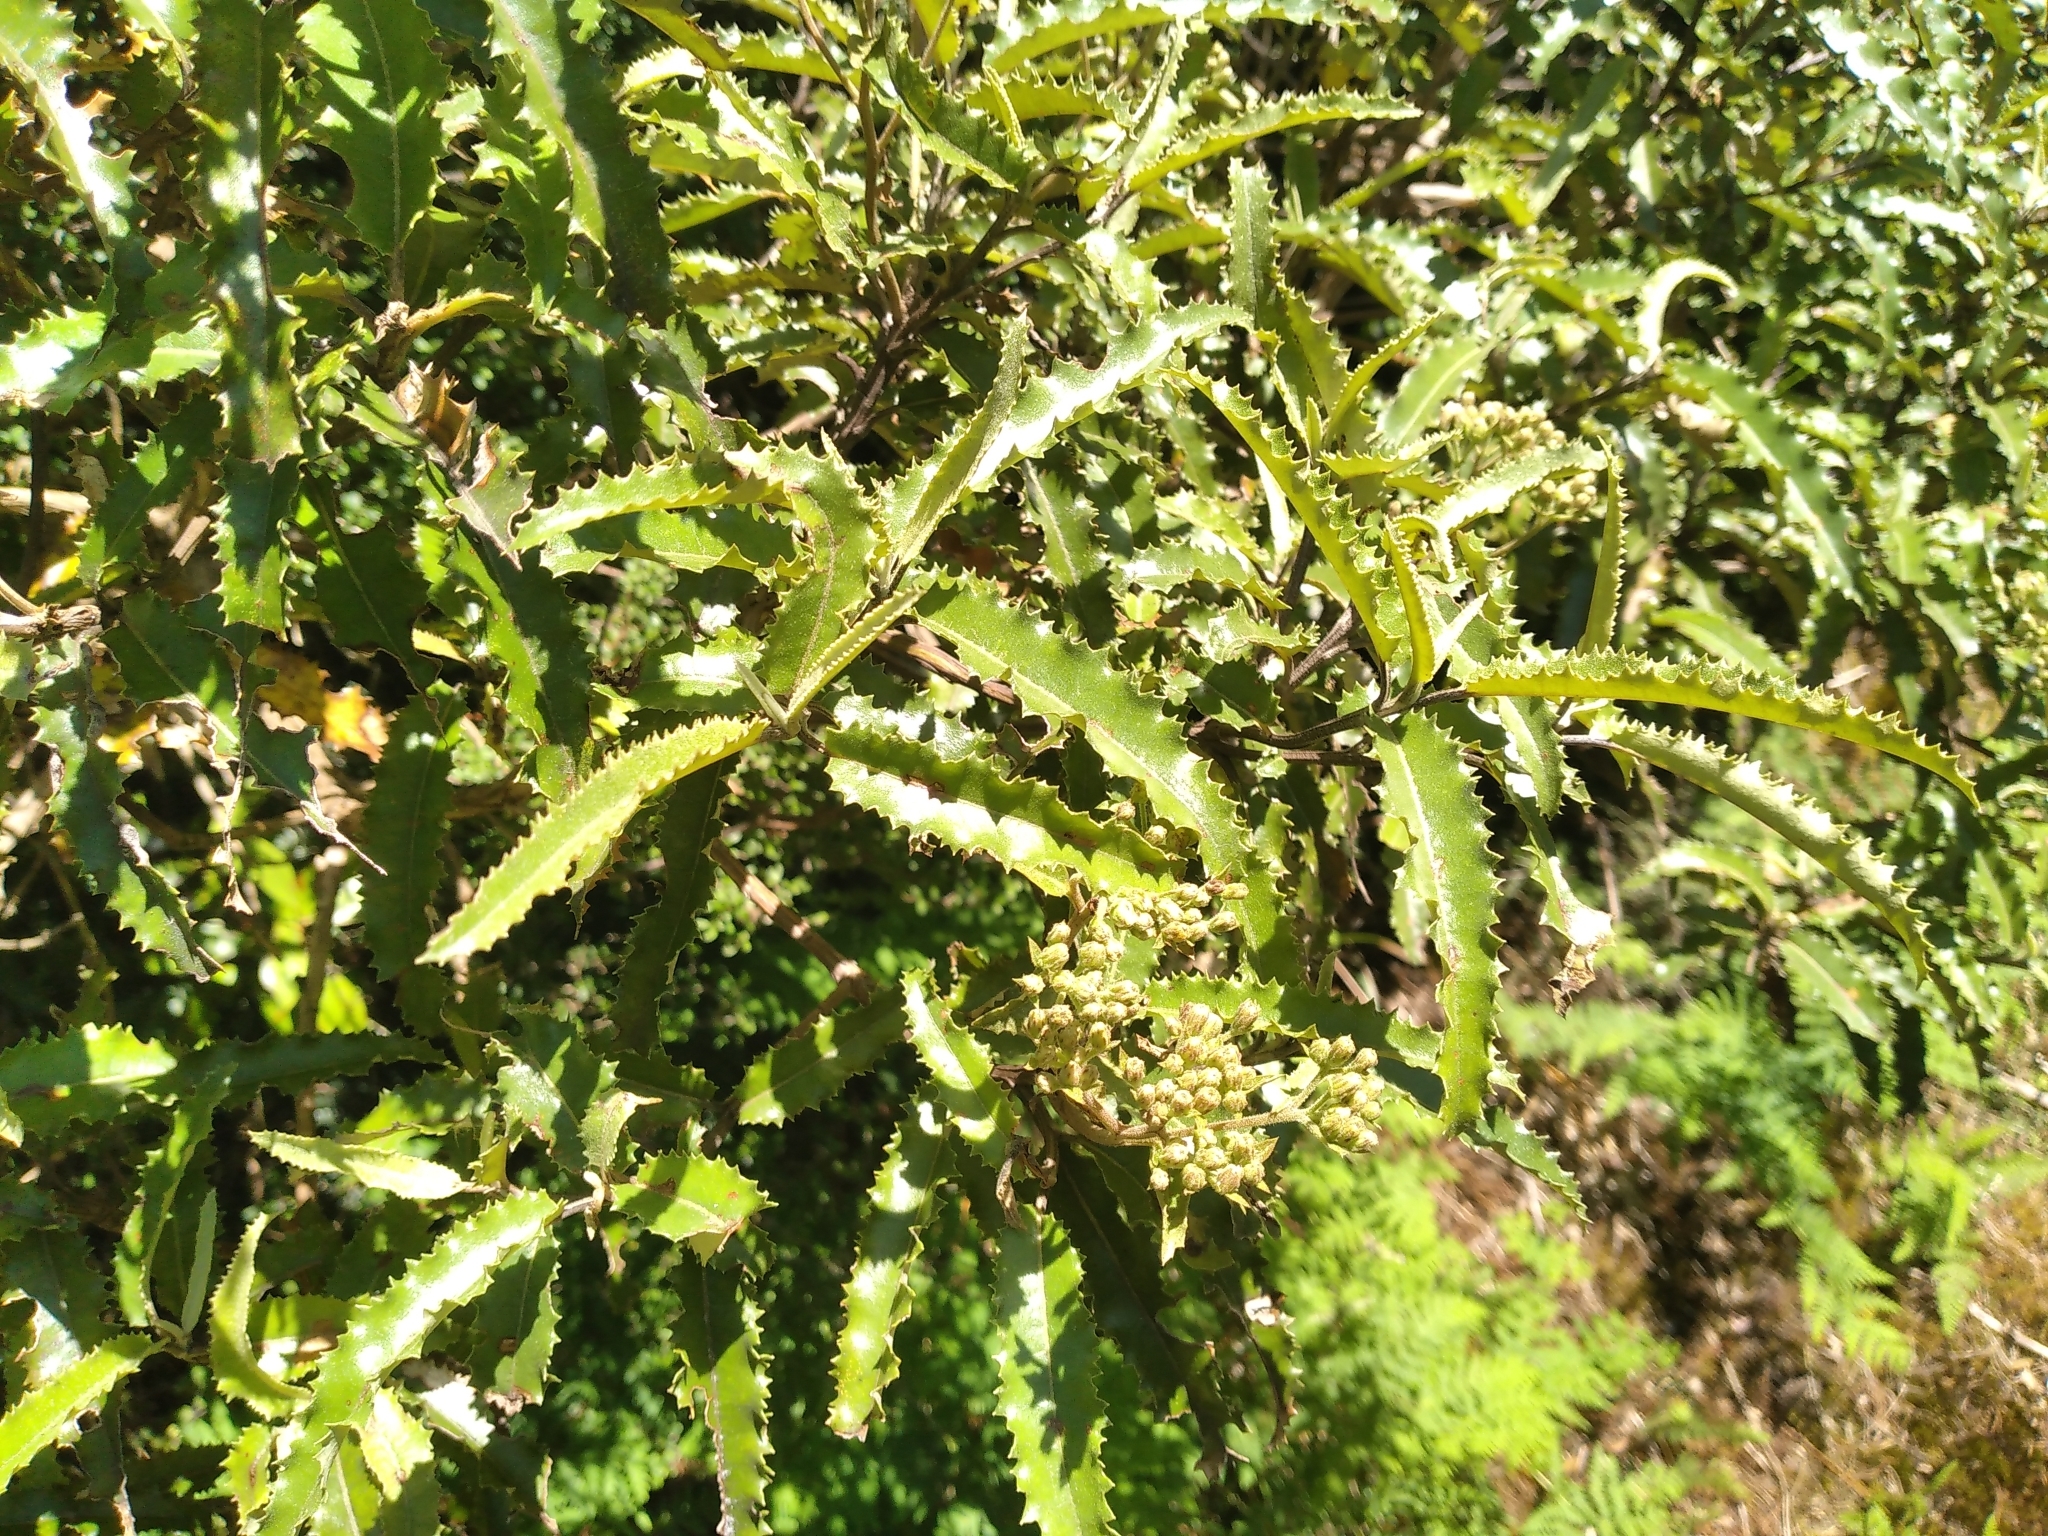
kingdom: Plantae
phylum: Tracheophyta
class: Magnoliopsida
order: Asterales
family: Asteraceae
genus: Olearia
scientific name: Olearia ilicifolia
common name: Maori-holly
